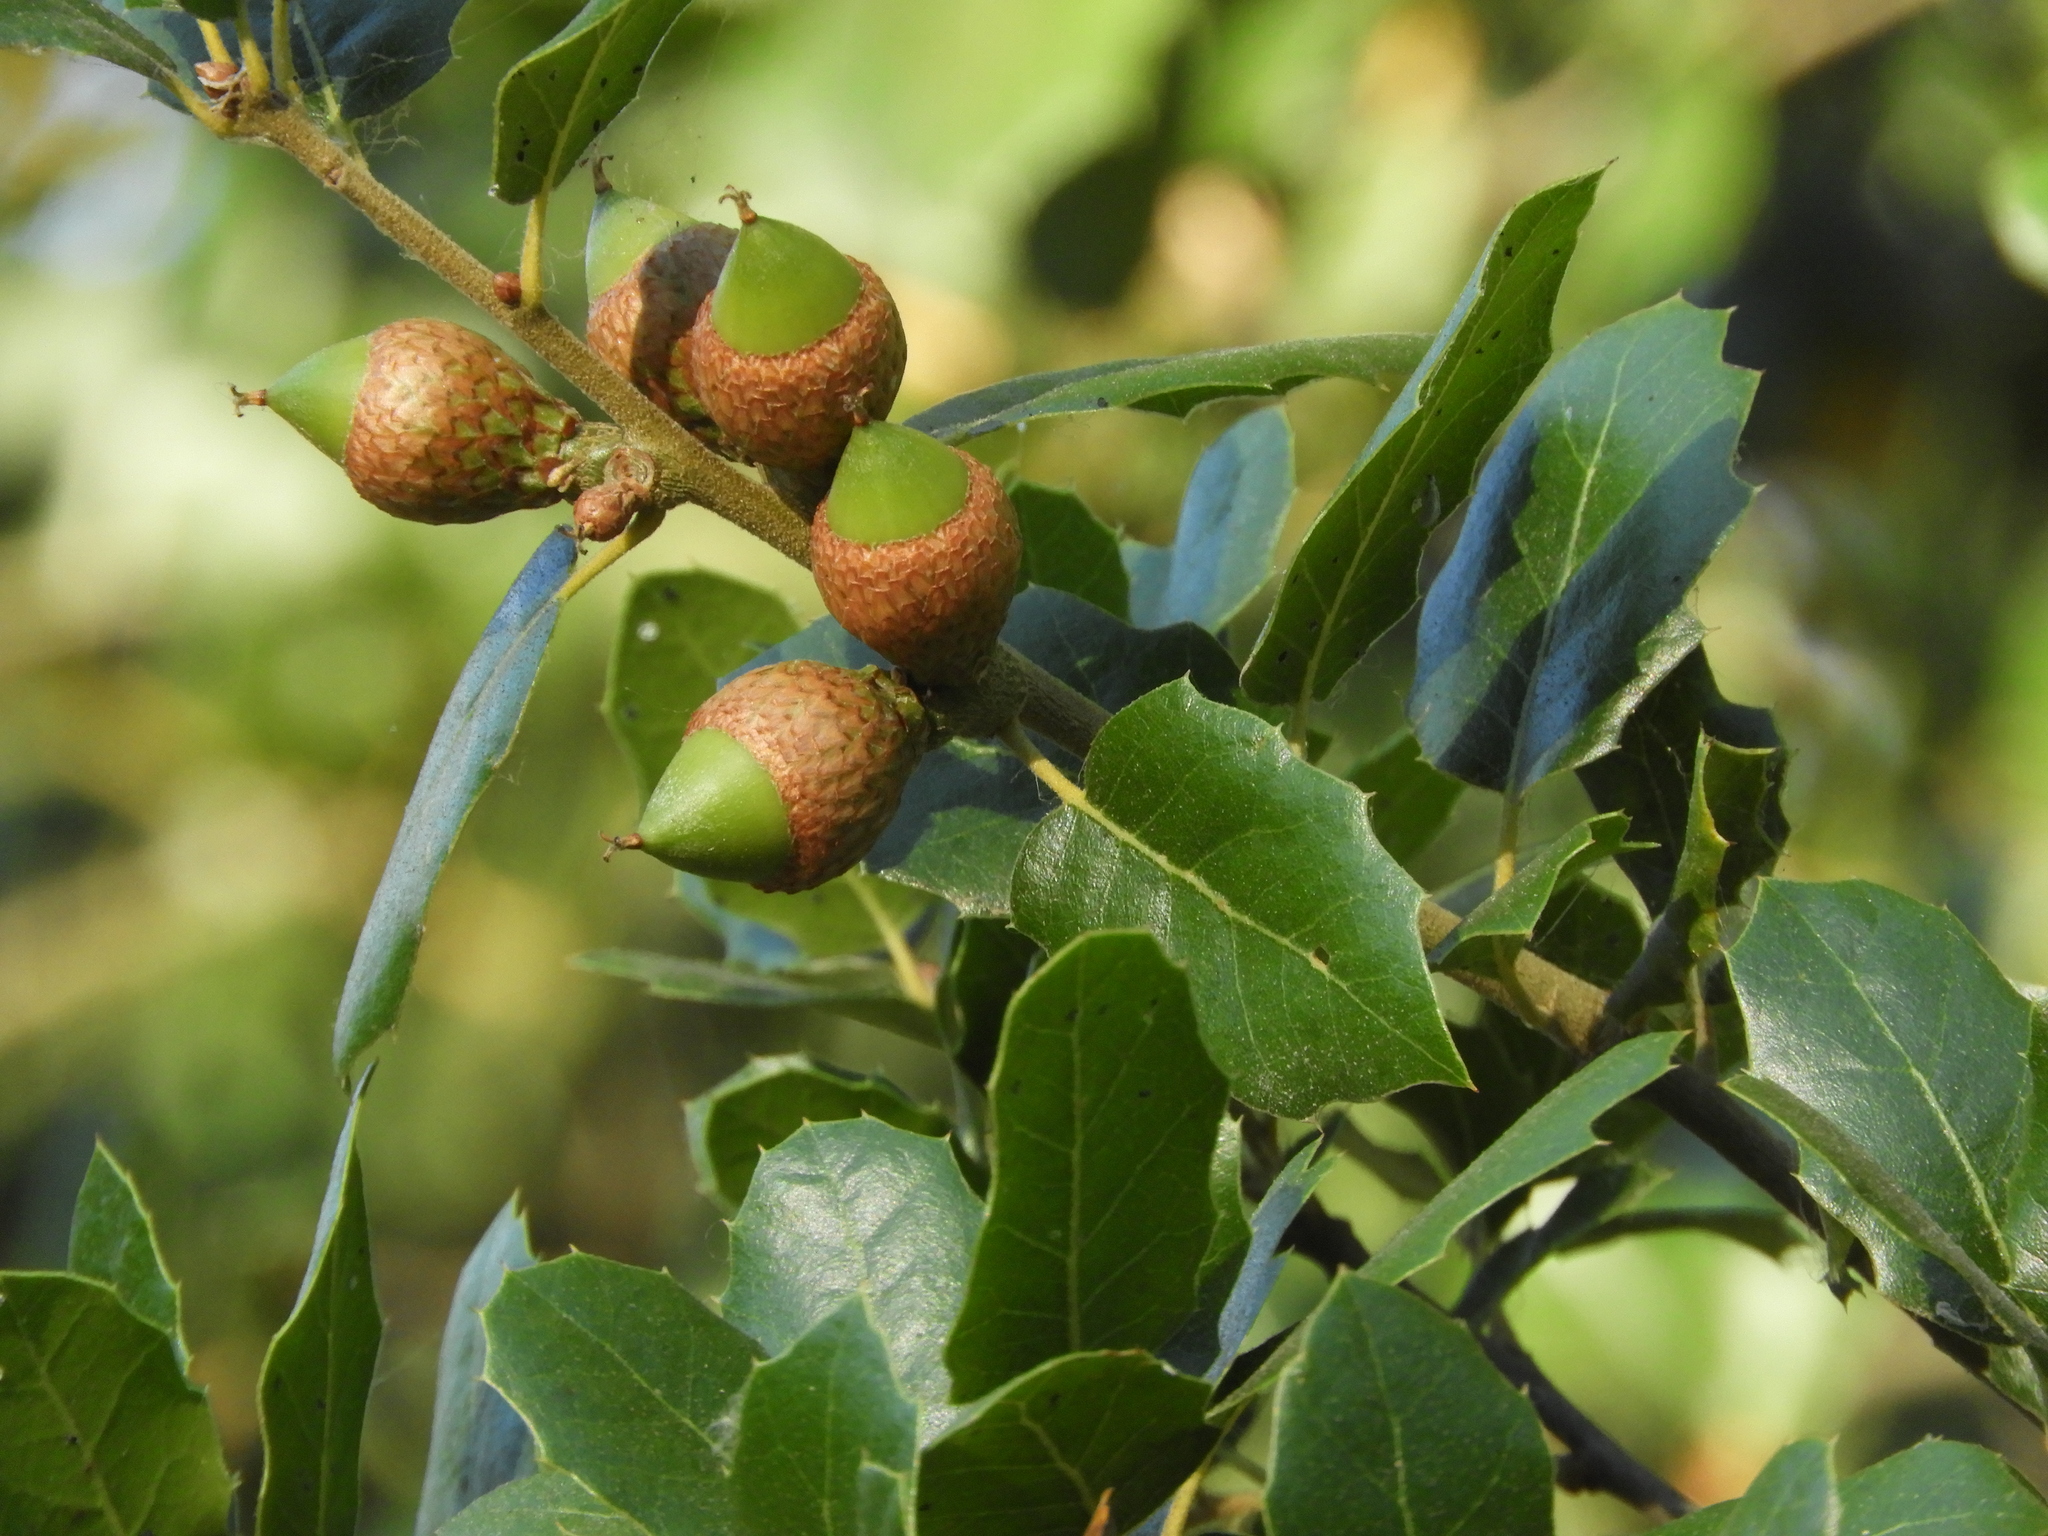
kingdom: Plantae
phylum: Tracheophyta
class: Magnoliopsida
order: Fagales
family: Fagaceae
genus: Quercus
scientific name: Quercus
